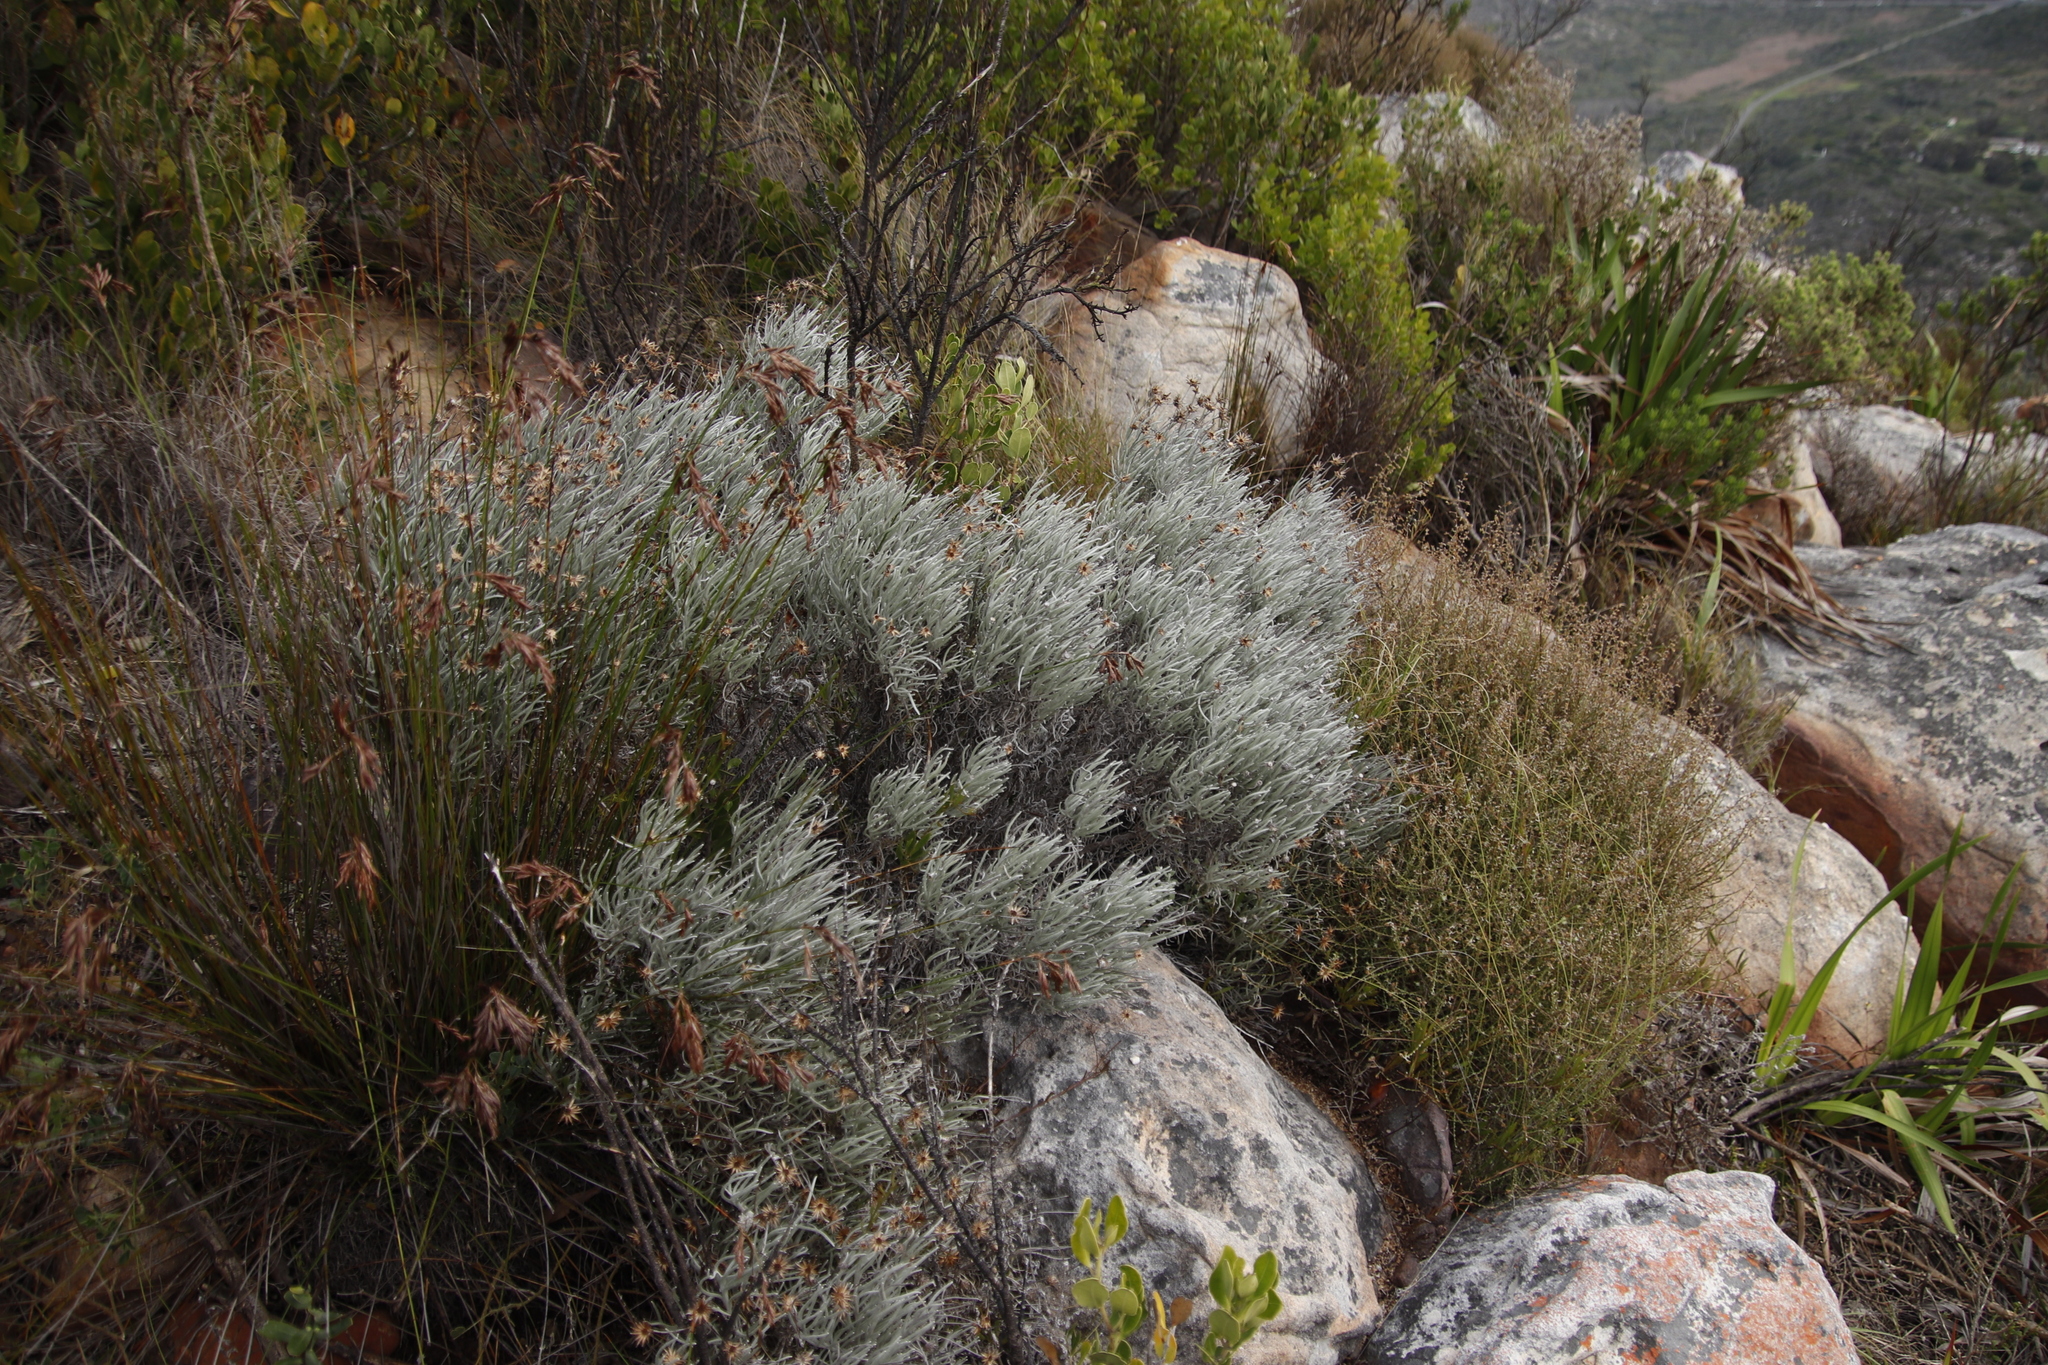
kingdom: Plantae
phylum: Tracheophyta
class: Magnoliopsida
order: Asterales
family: Asteraceae
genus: Syncarpha
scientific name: Syncarpha gnaphaloides
